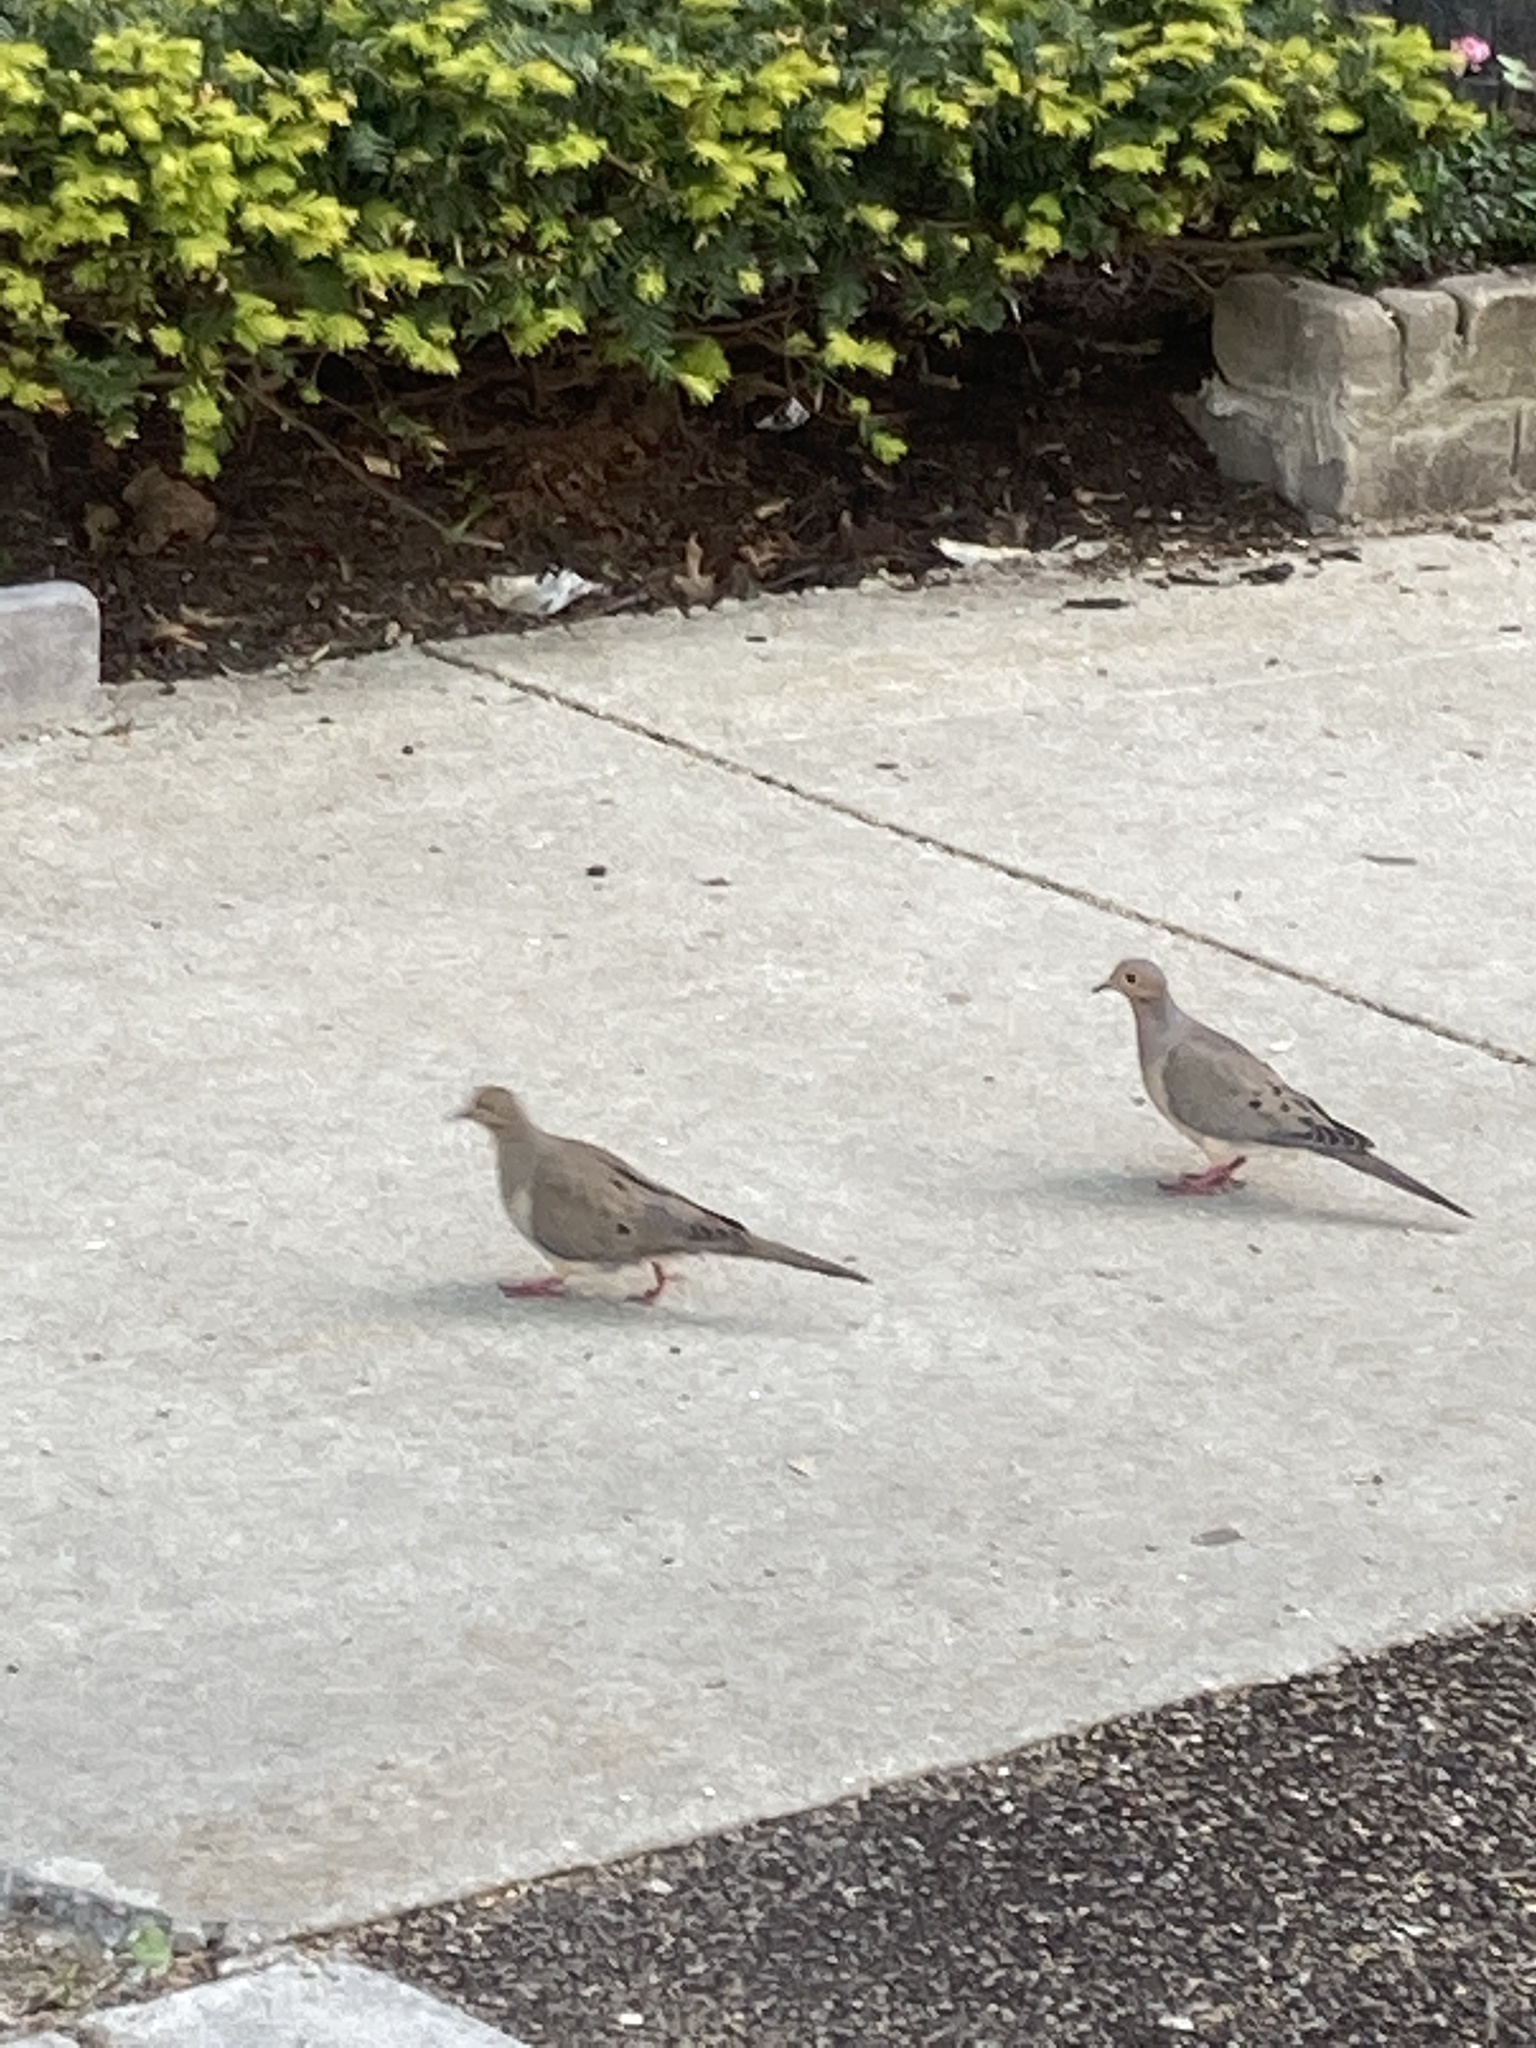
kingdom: Animalia
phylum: Chordata
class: Aves
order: Columbiformes
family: Columbidae
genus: Zenaida
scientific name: Zenaida macroura
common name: Mourning dove
